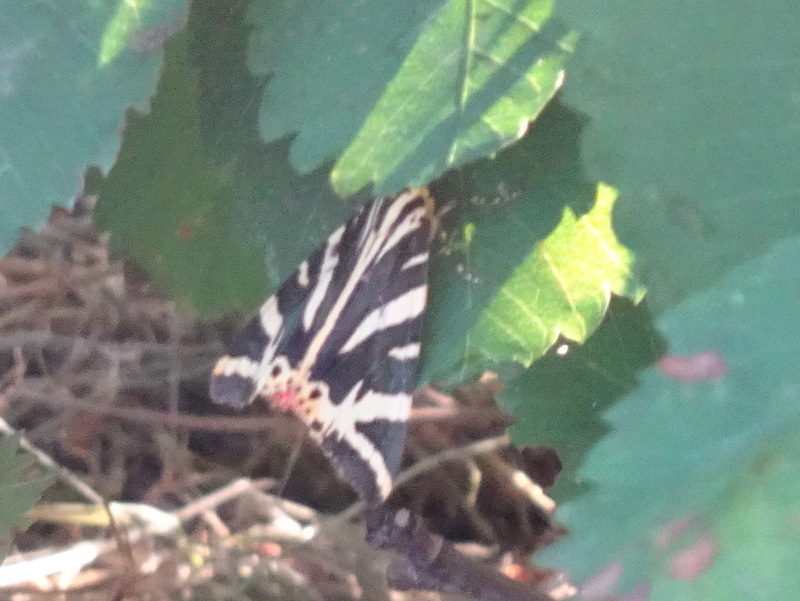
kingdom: Animalia
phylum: Arthropoda
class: Insecta
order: Lepidoptera
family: Erebidae
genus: Euplagia
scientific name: Euplagia quadripunctaria
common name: Jersey tiger
